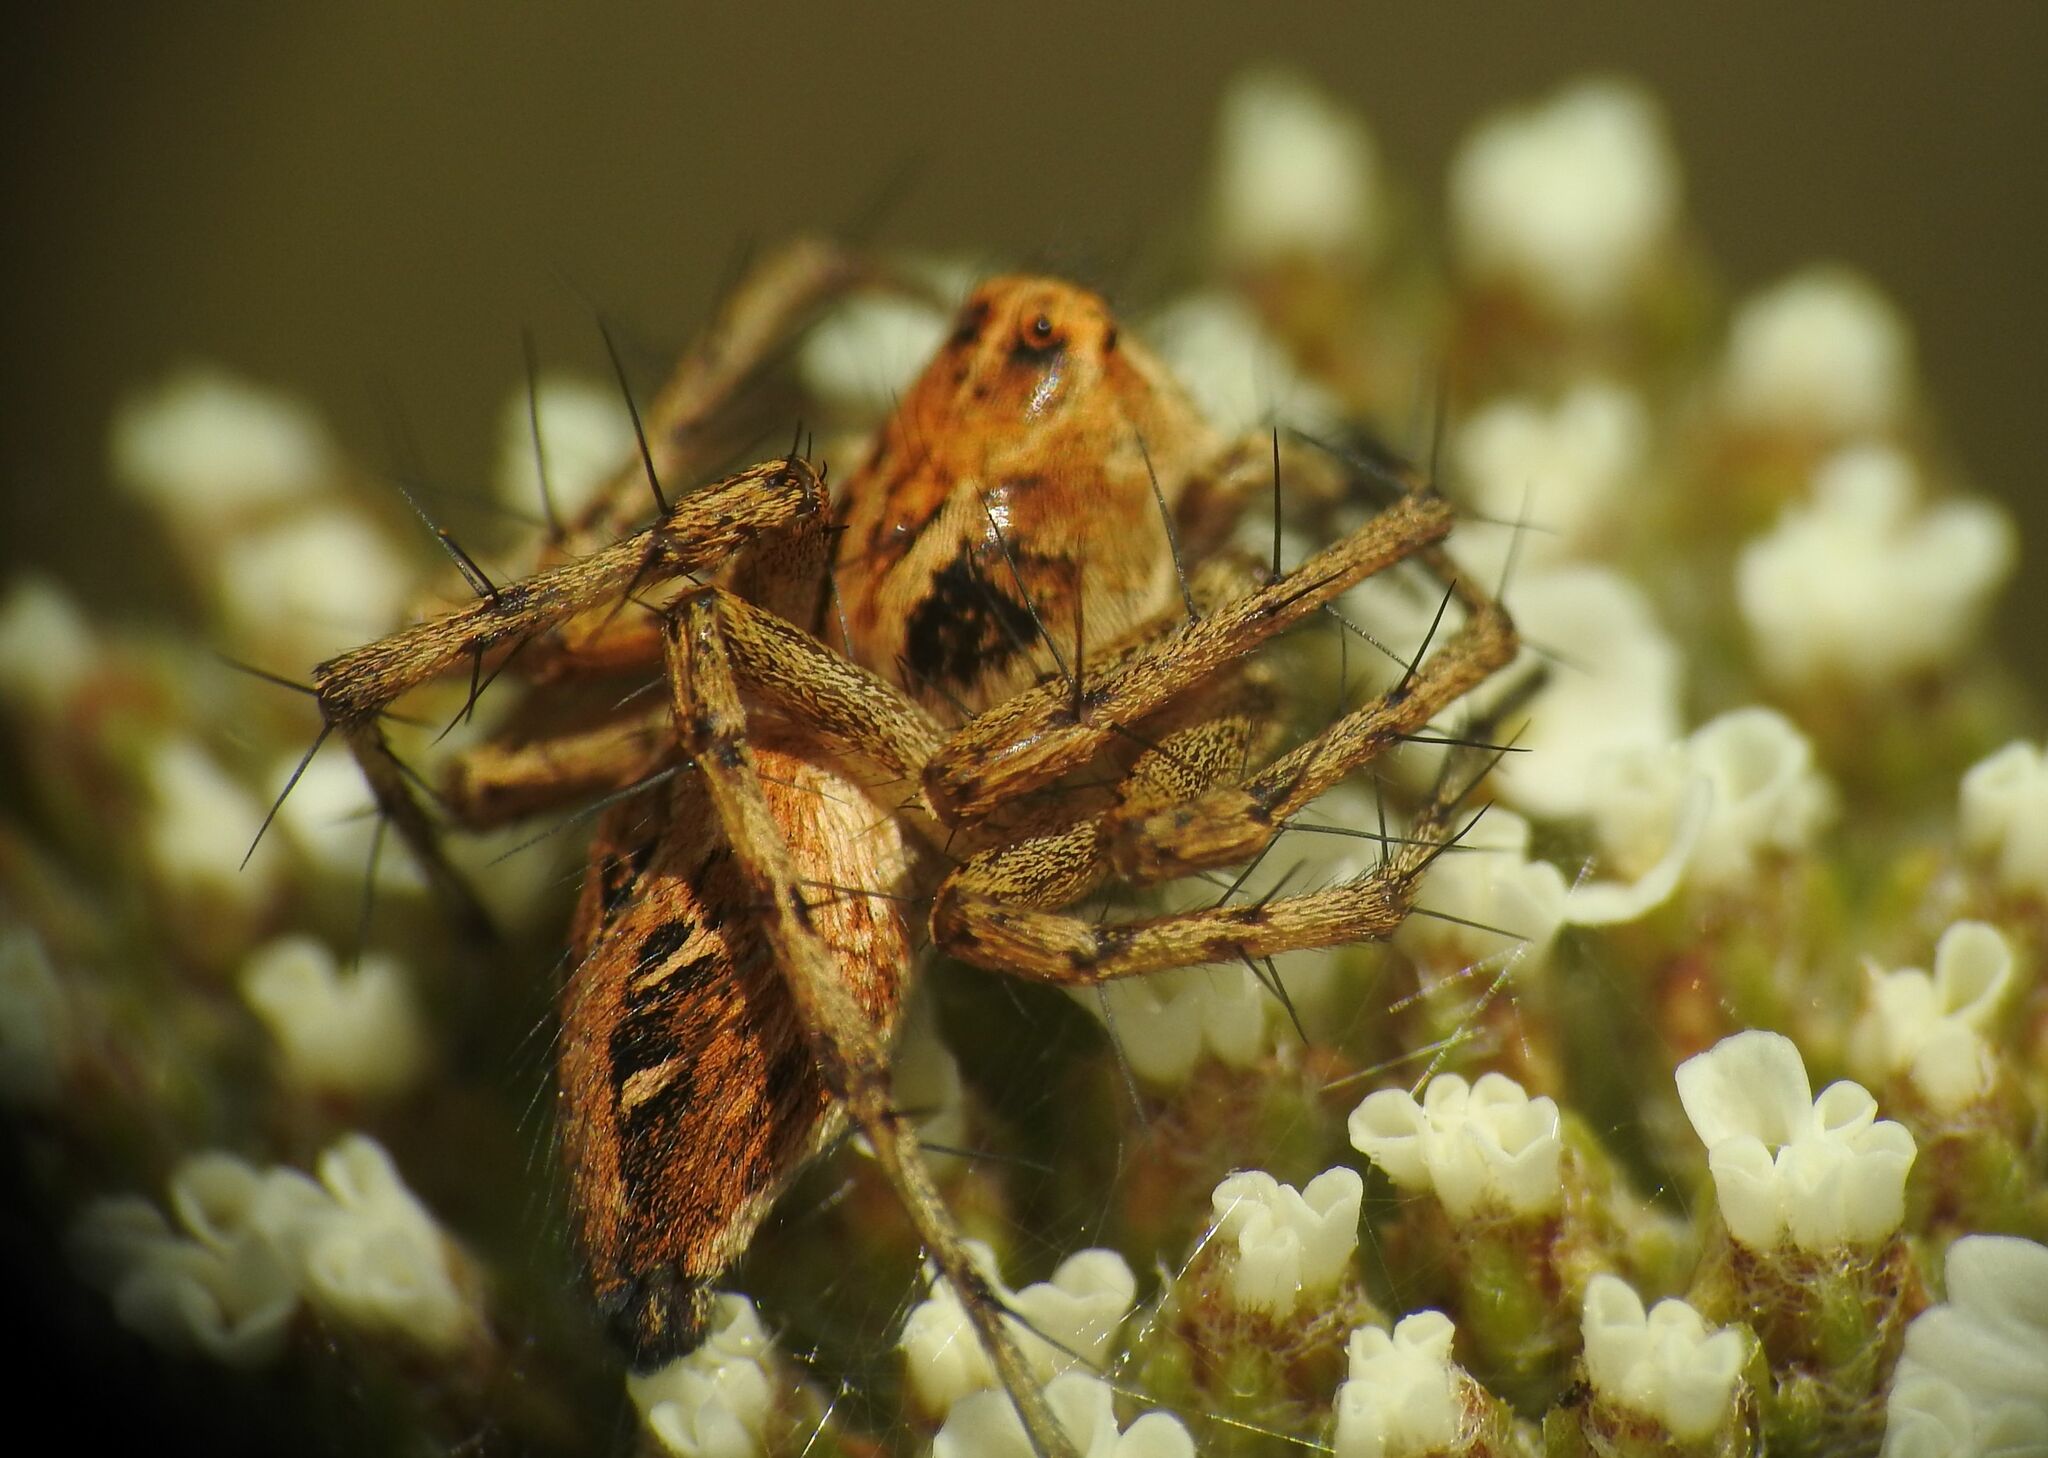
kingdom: Animalia
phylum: Arthropoda
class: Arachnida
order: Araneae
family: Oxyopidae
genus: Oxyopes
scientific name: Oxyopes heterophthalmus
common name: Lynx spider
